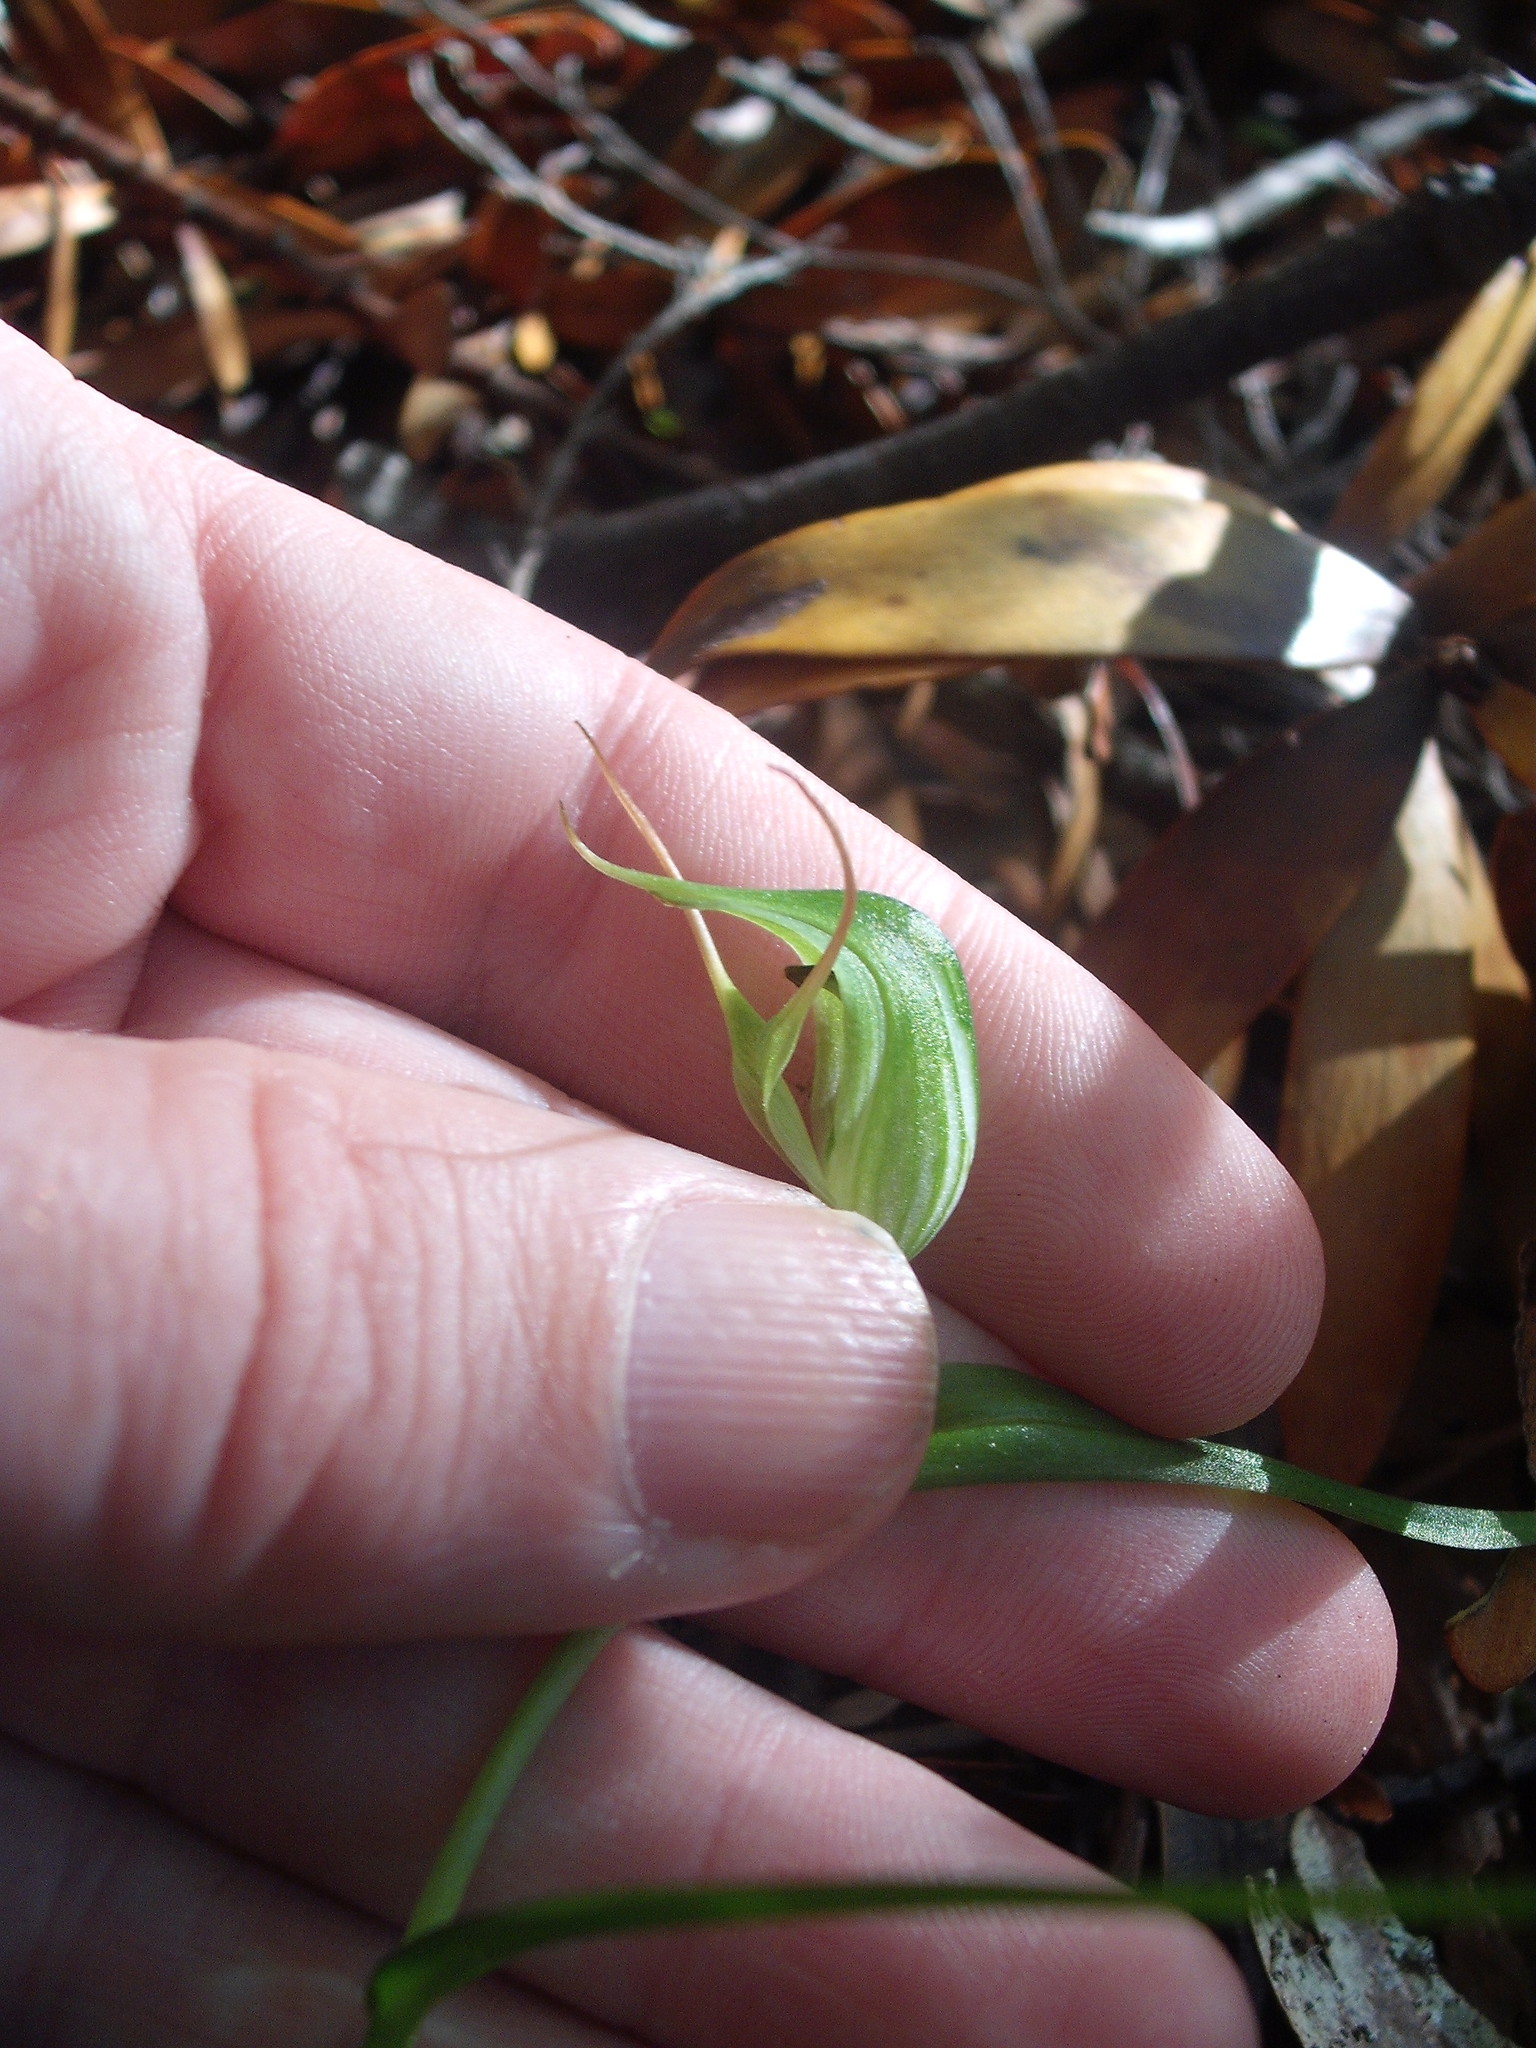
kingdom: Plantae
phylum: Tracheophyta
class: Liliopsida
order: Asparagales
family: Orchidaceae
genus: Pterostylis
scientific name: Pterostylis agathicola
